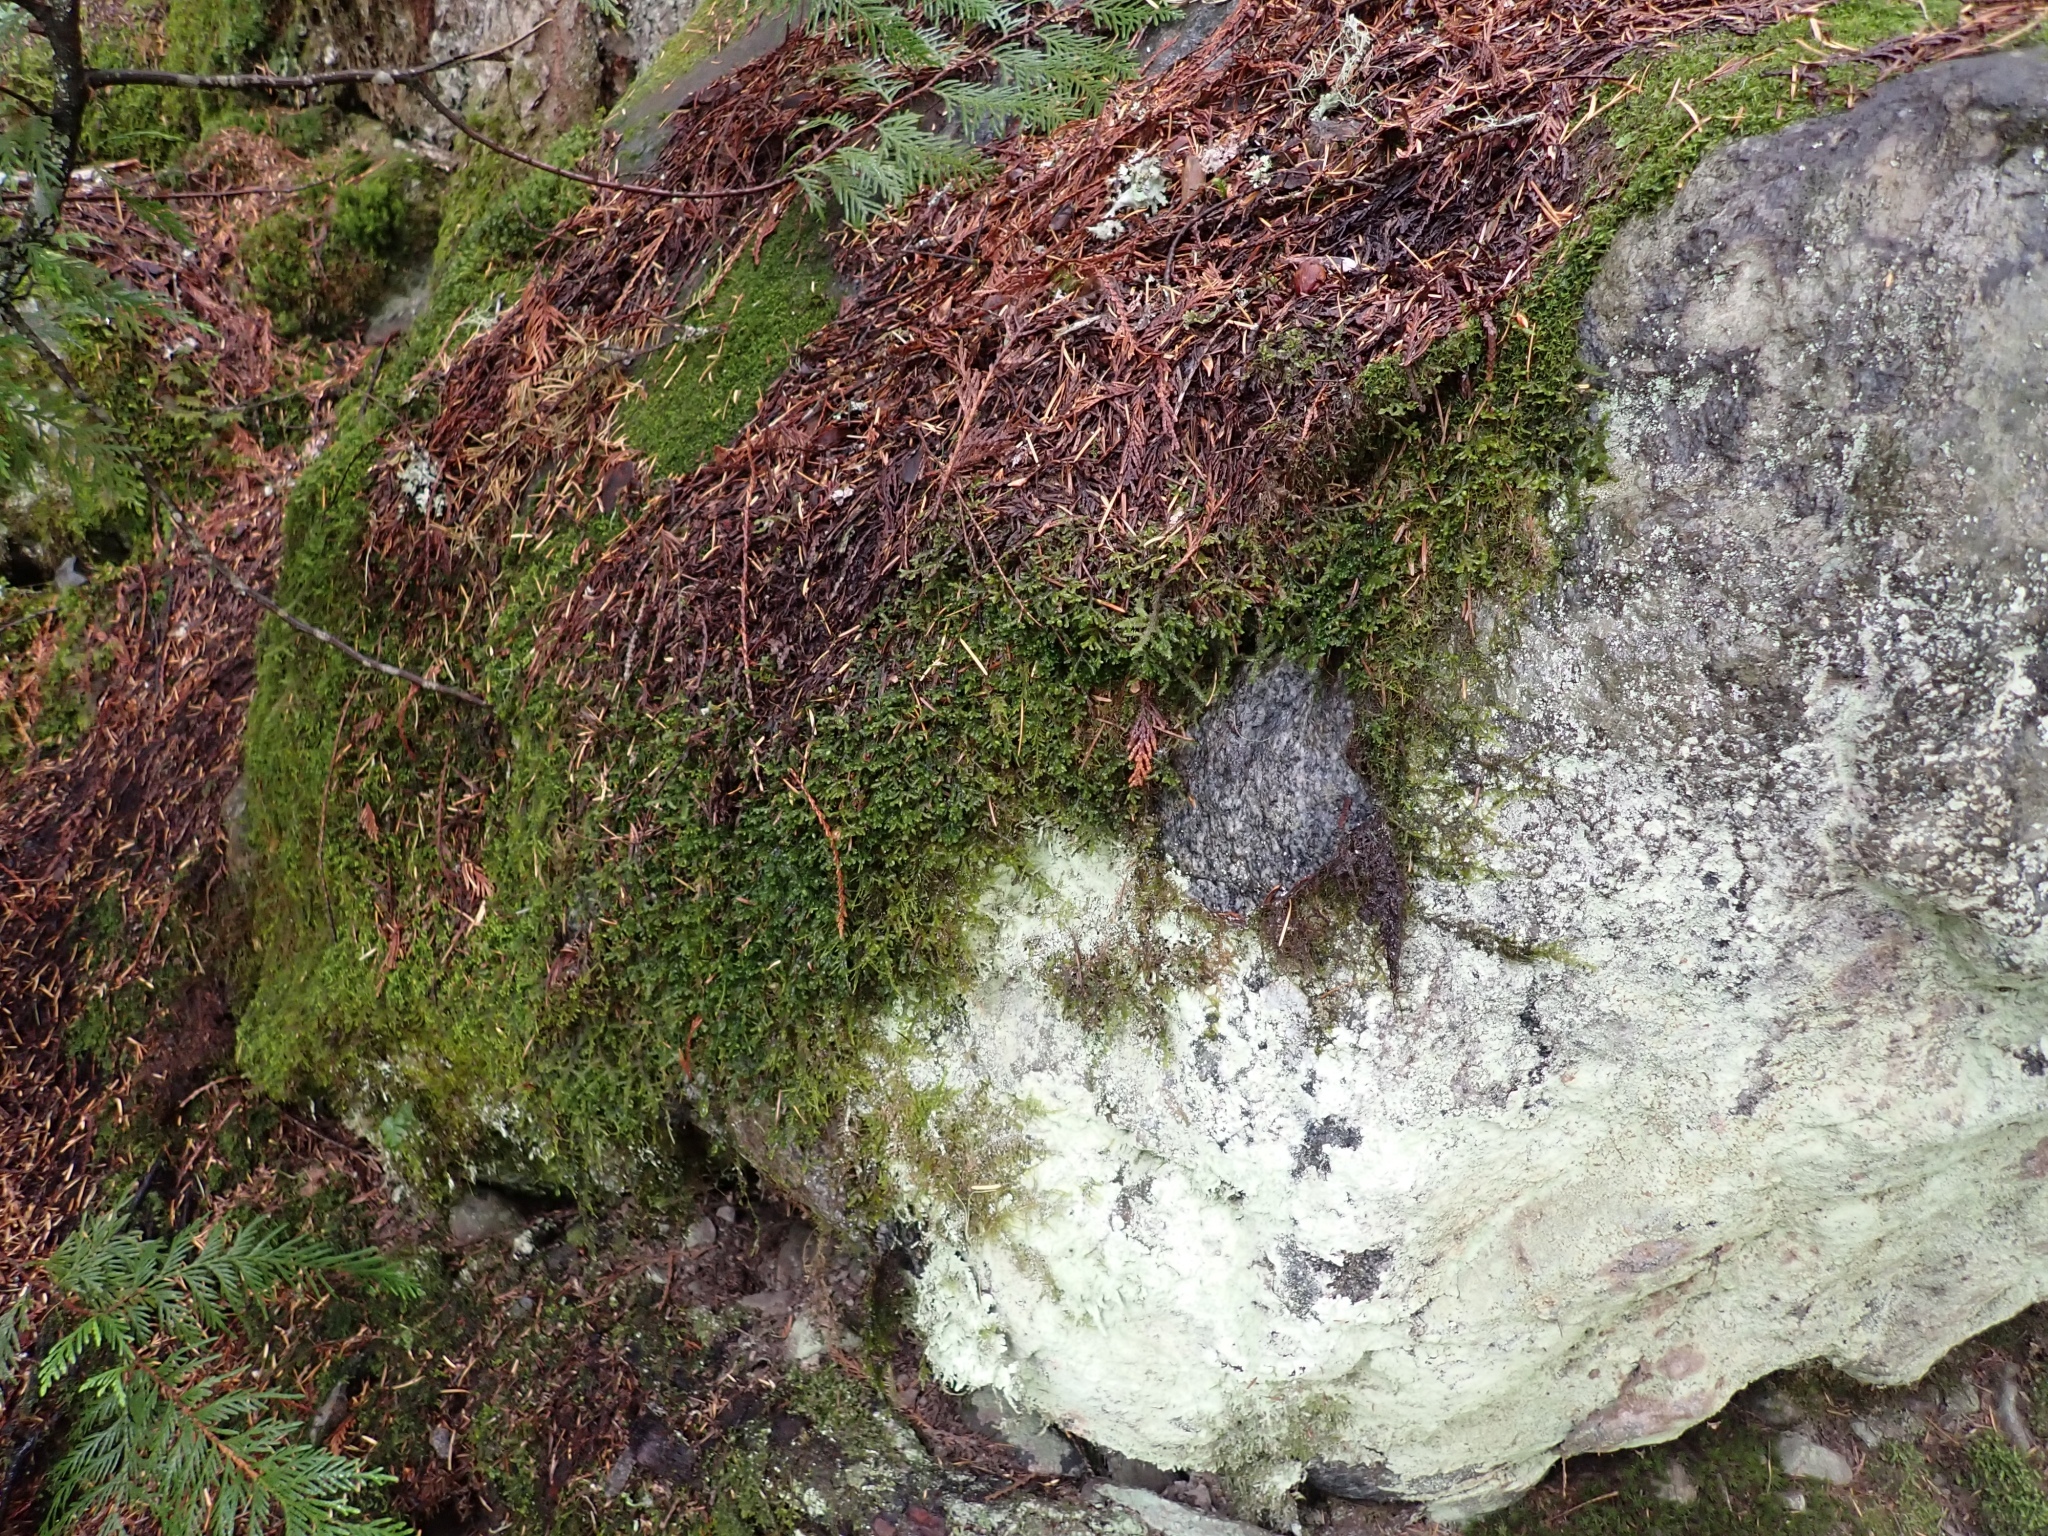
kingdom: Plantae
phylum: Bryophyta
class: Bryopsida
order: Hypnales
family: Neckeraceae
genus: Neckera
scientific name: Neckera douglasii
